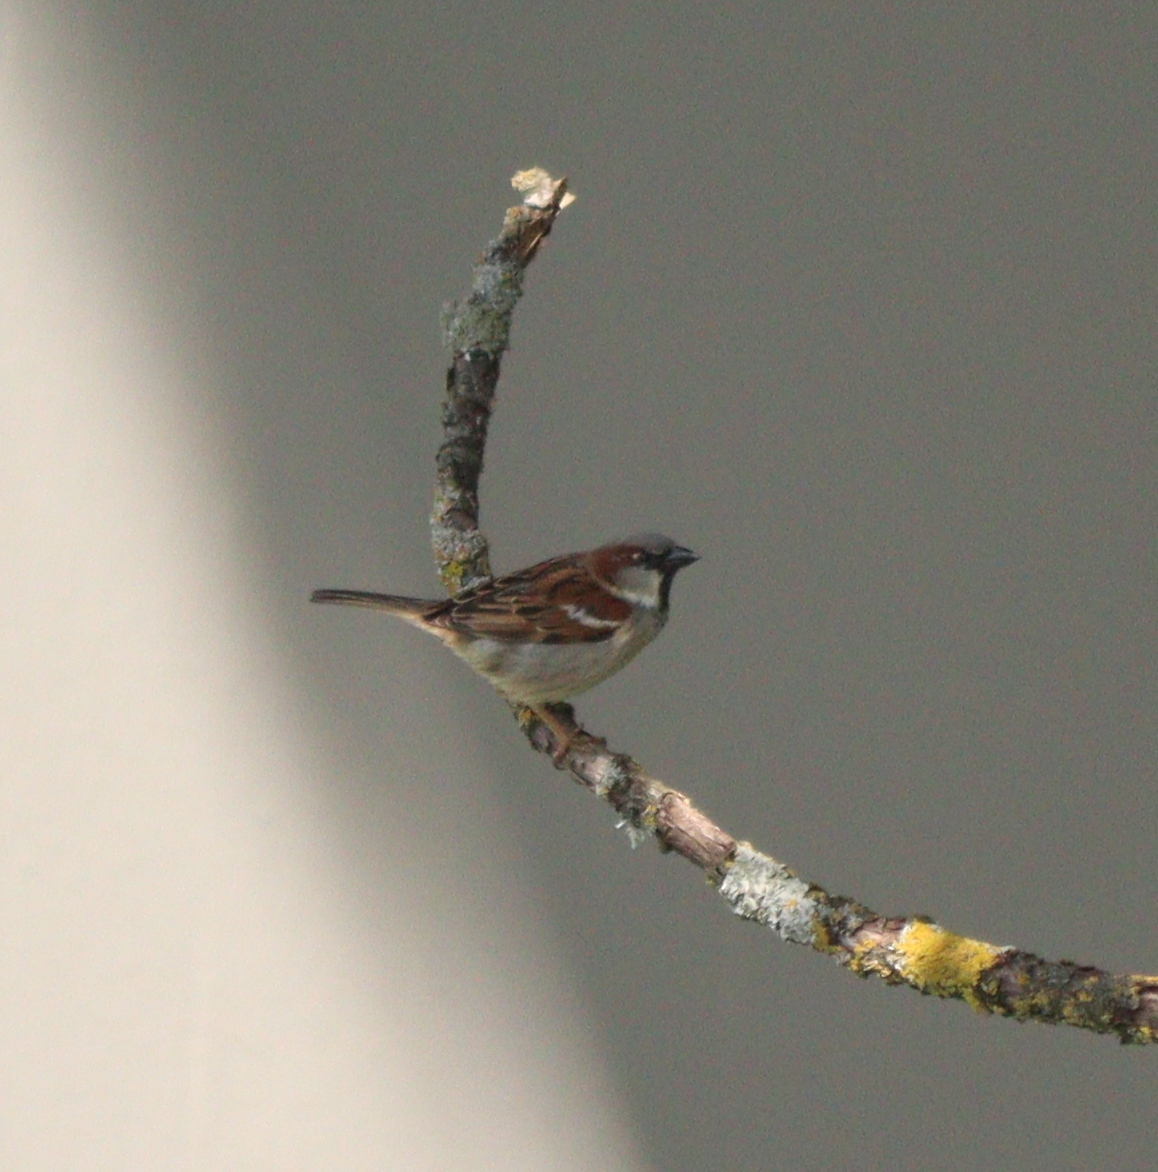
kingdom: Animalia
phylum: Chordata
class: Aves
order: Passeriformes
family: Passeridae
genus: Passer
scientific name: Passer domesticus
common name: House sparrow
